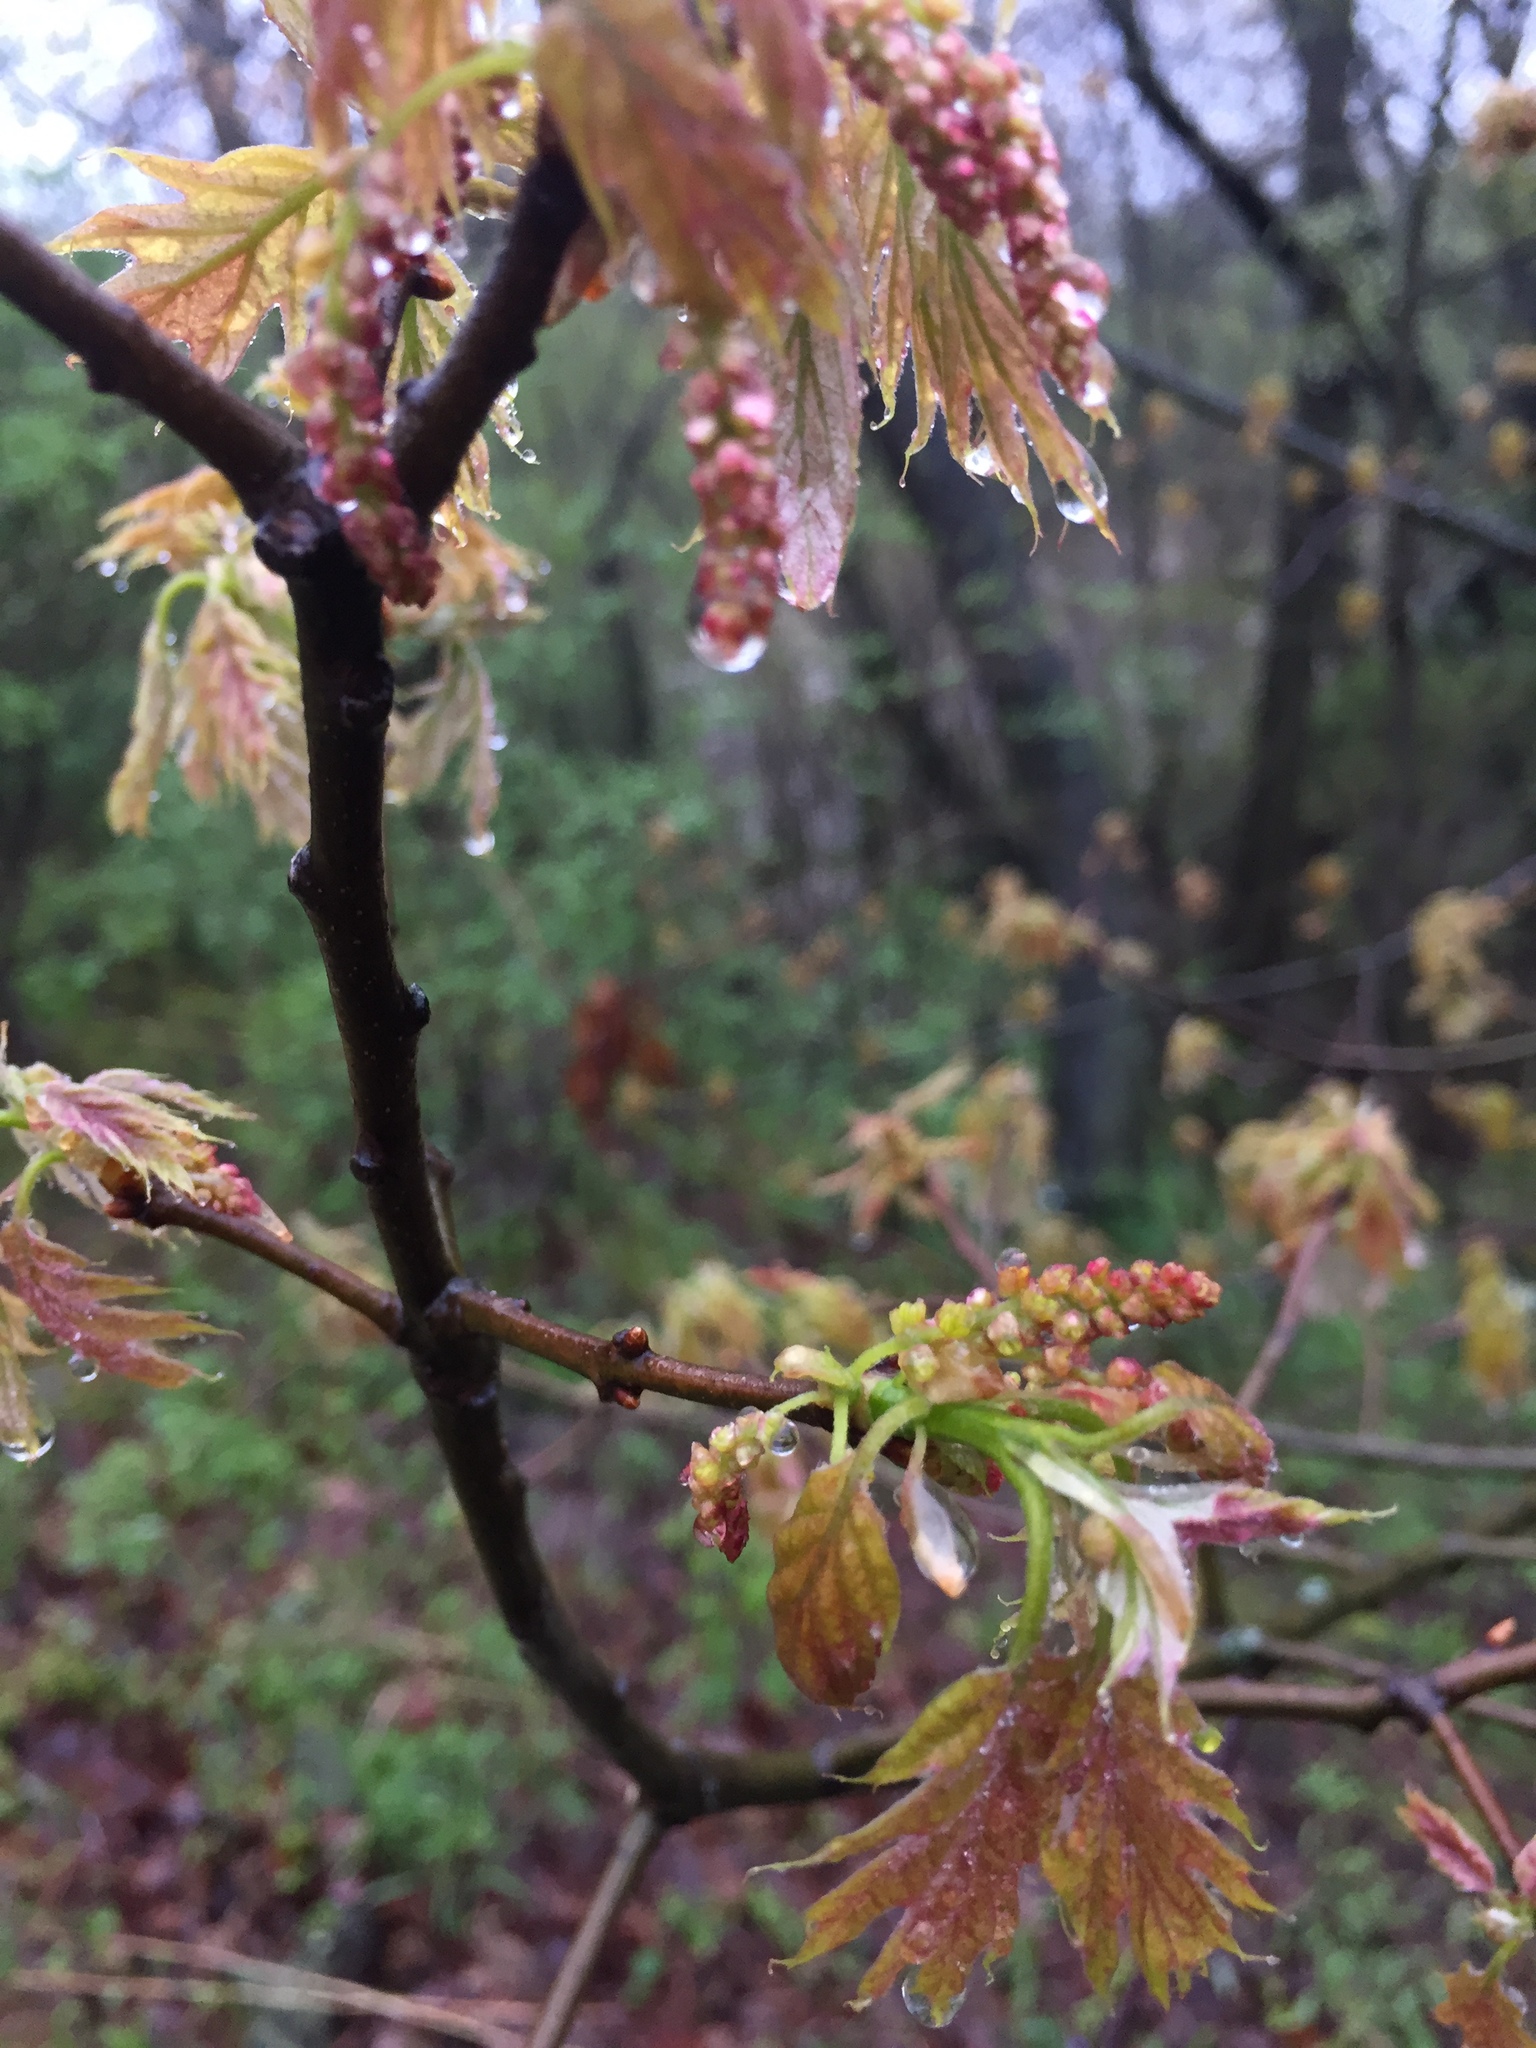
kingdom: Plantae
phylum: Tracheophyta
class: Magnoliopsida
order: Fagales
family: Fagaceae
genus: Quercus
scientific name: Quercus rubra
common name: Red oak
